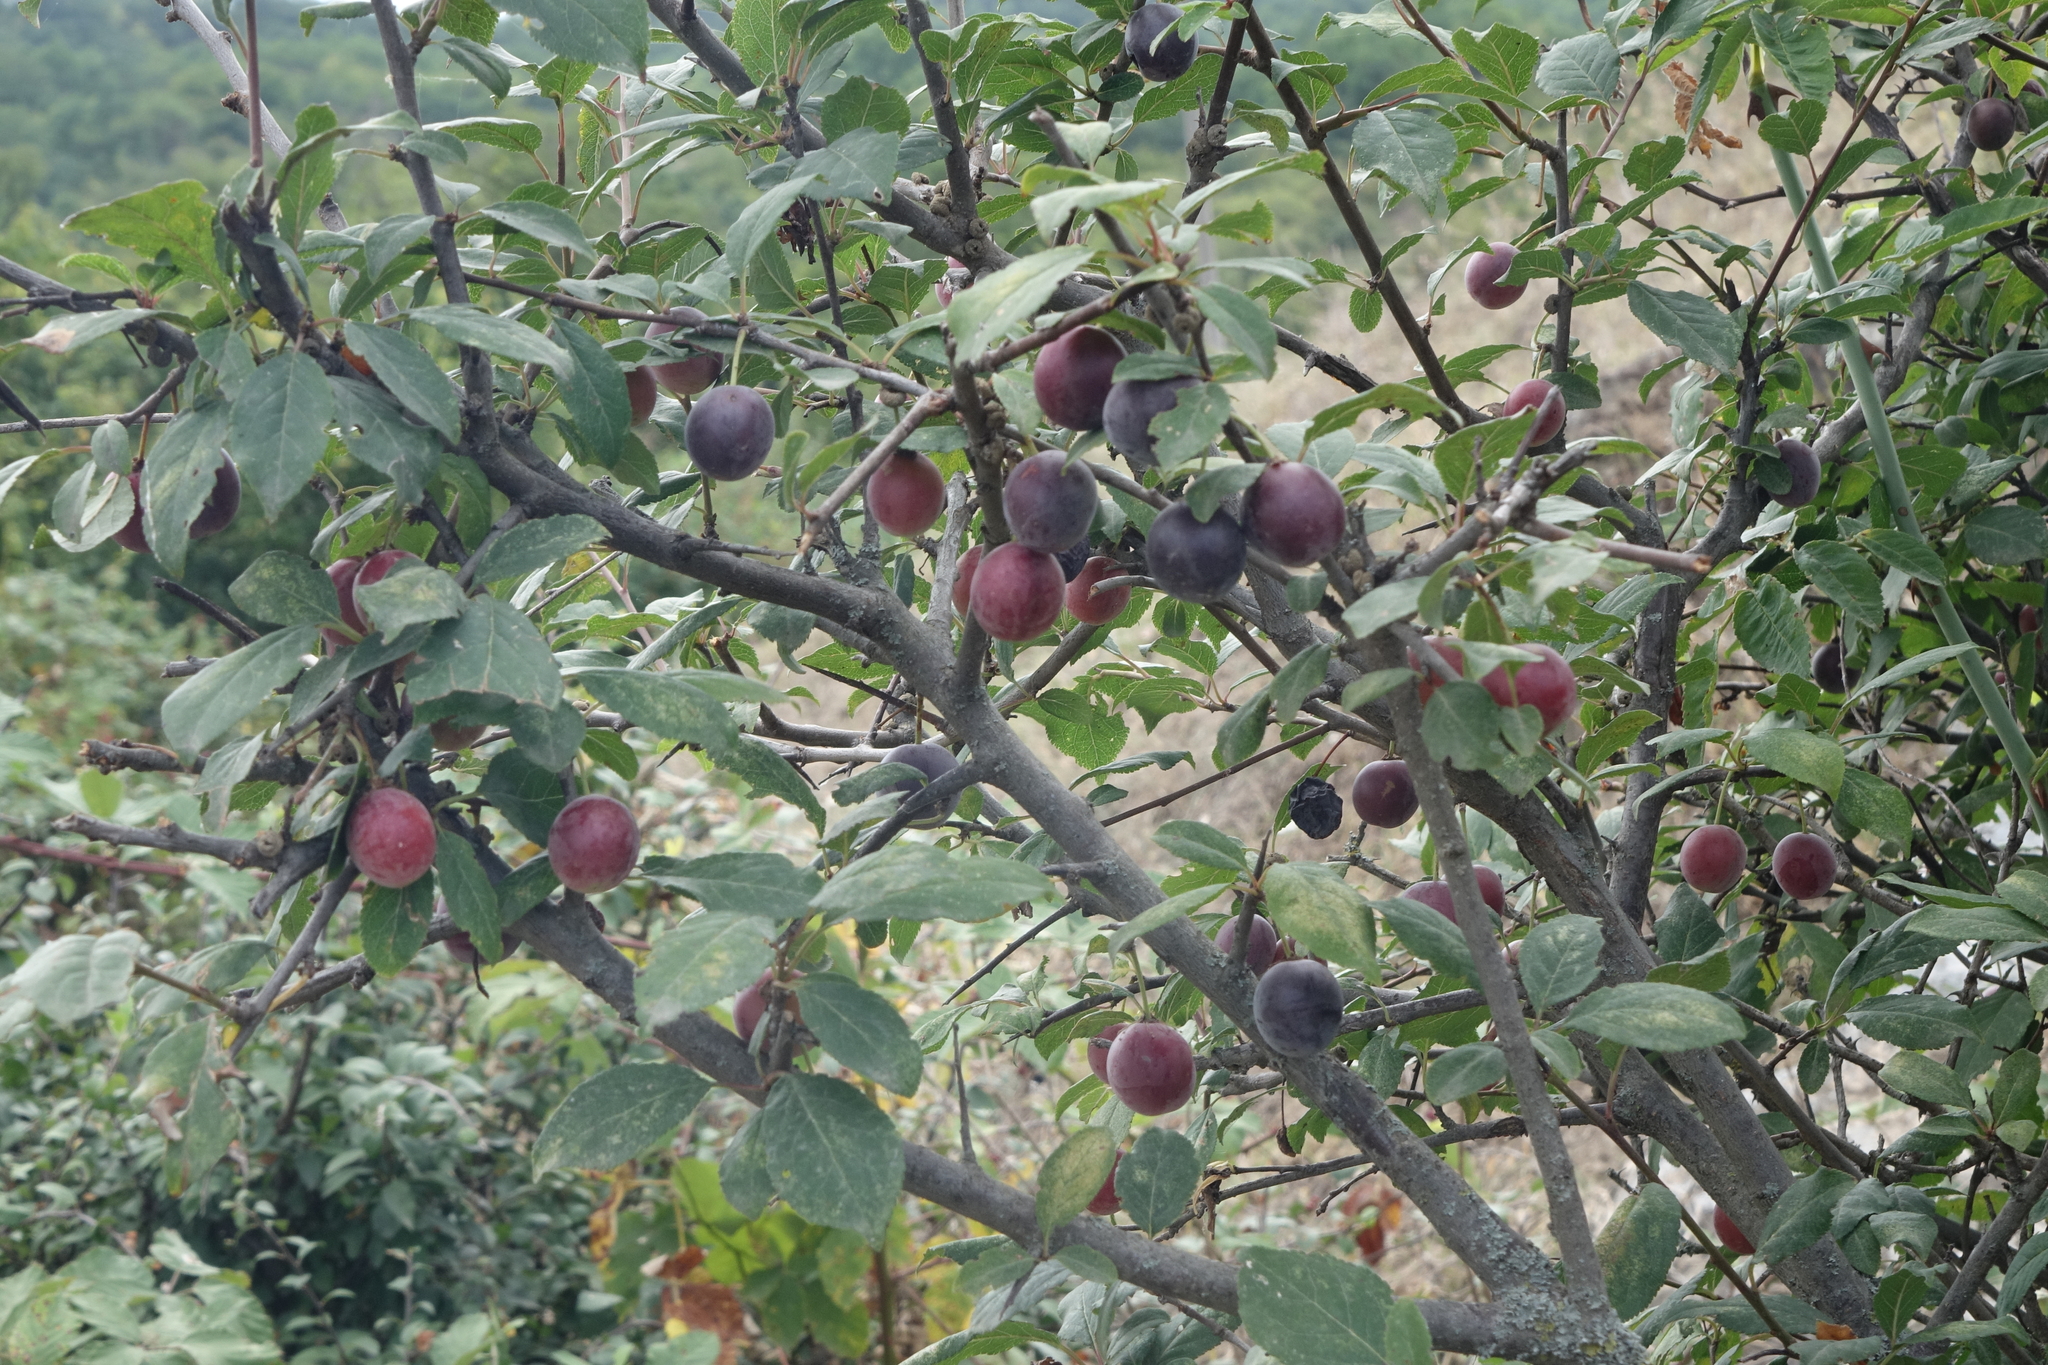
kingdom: Plantae
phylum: Tracheophyta
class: Magnoliopsida
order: Rosales
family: Rosaceae
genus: Prunus
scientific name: Prunus cerasifera
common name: Cherry plum
